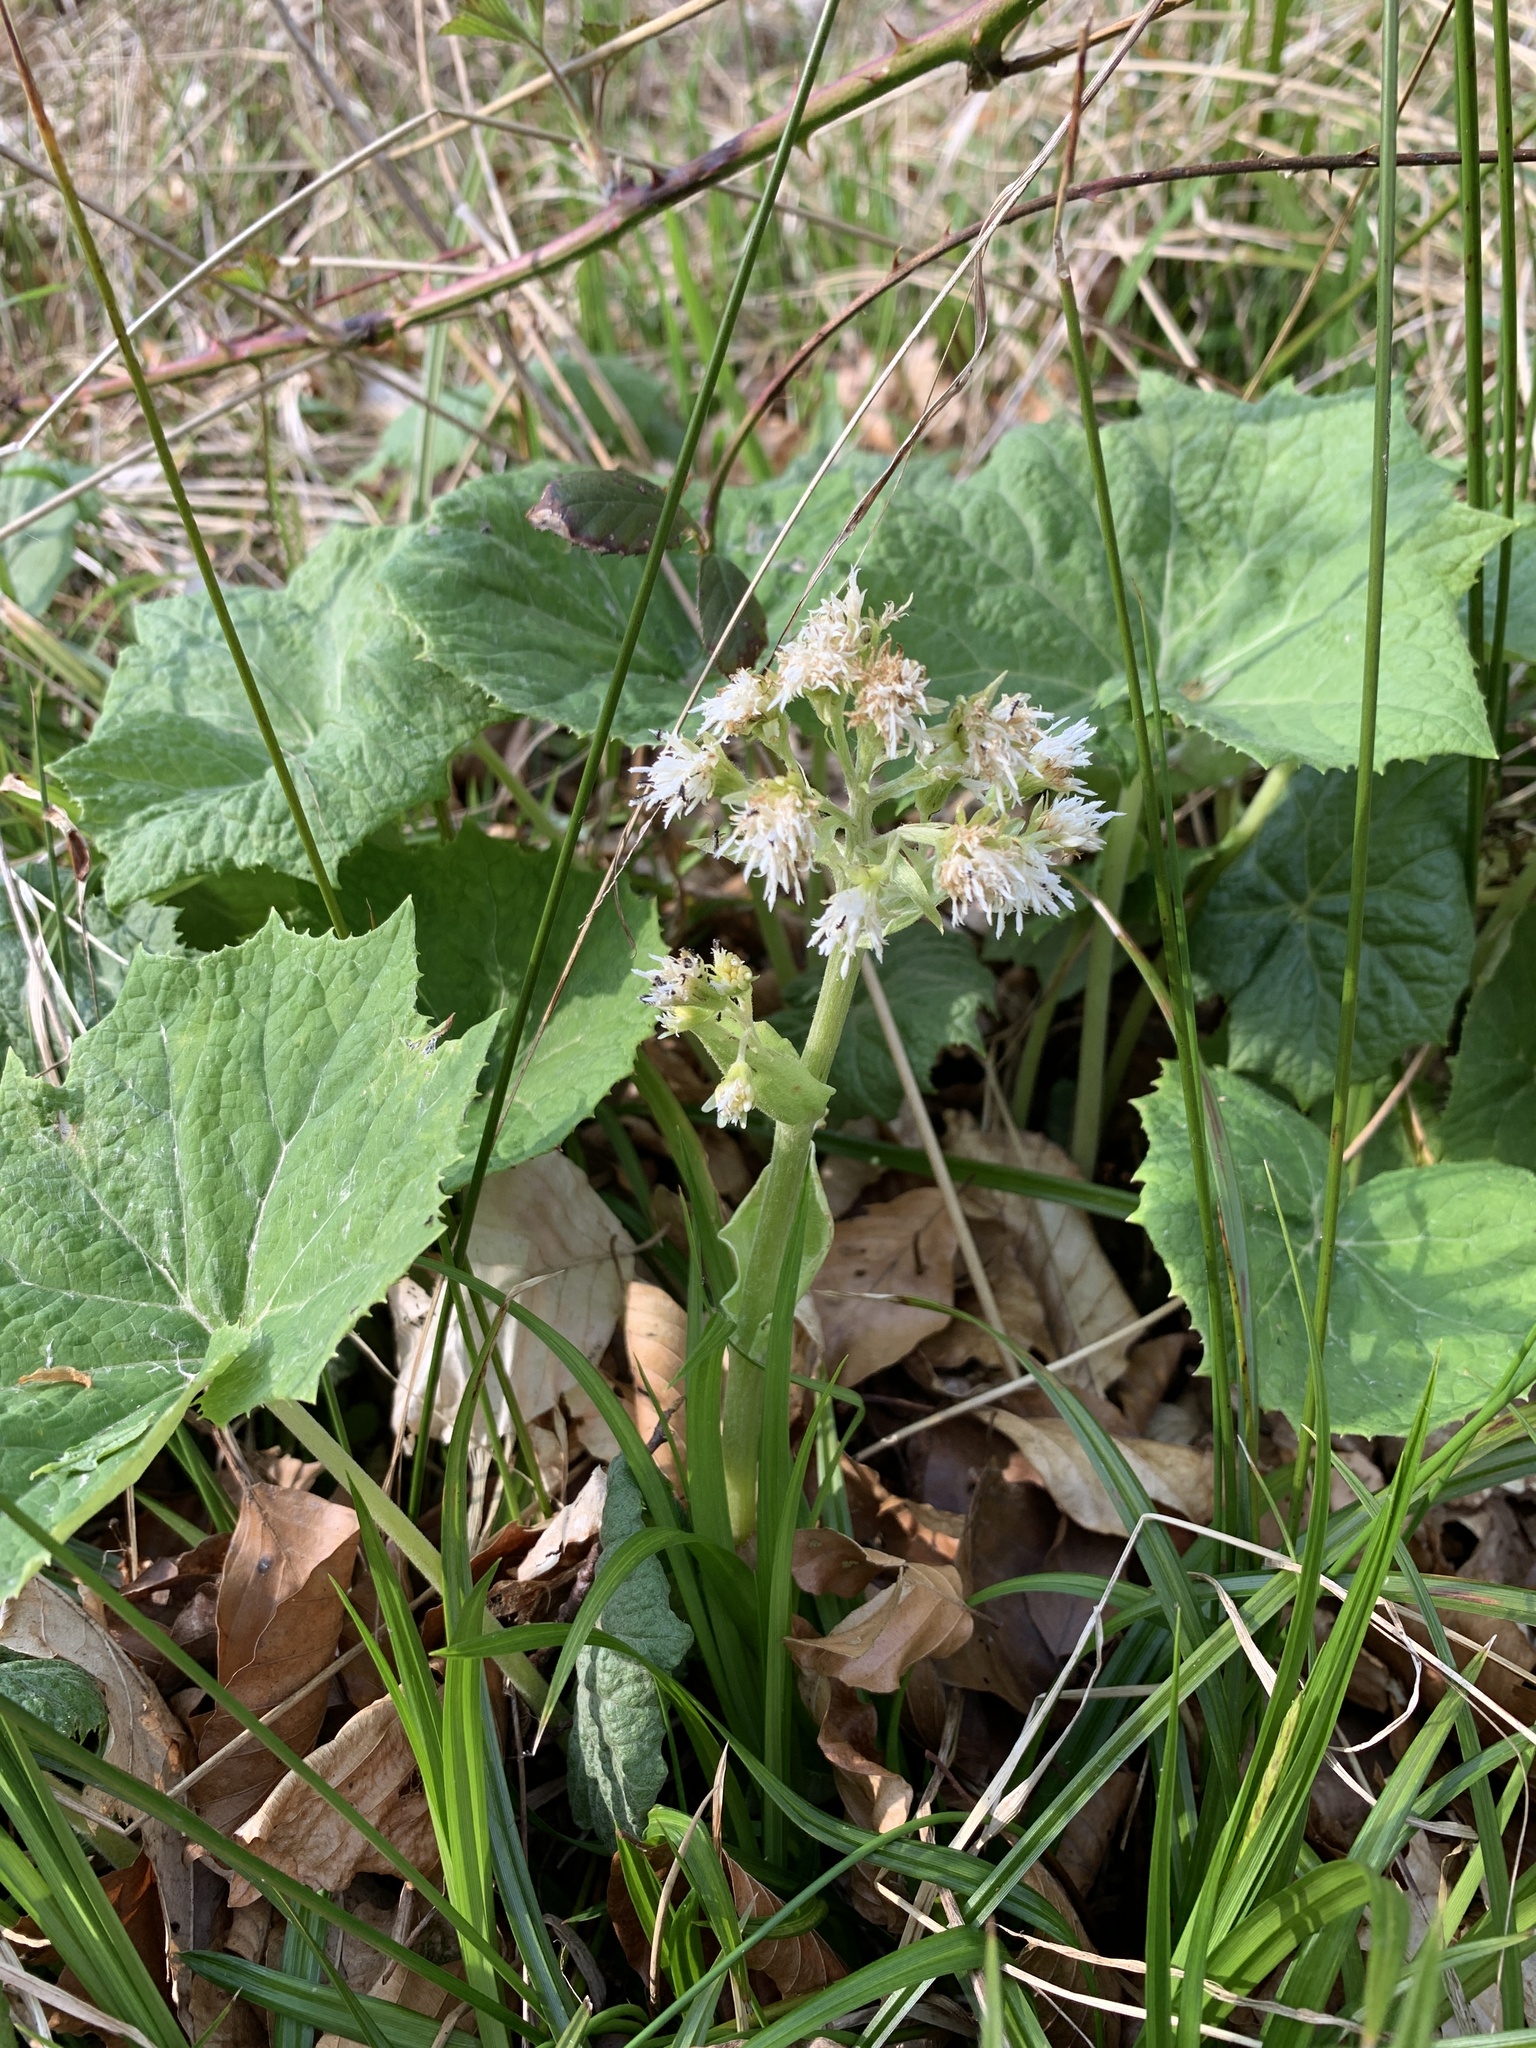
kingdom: Plantae
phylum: Tracheophyta
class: Magnoliopsida
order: Asterales
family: Asteraceae
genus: Petasites
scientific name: Petasites albus
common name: White butterbur
